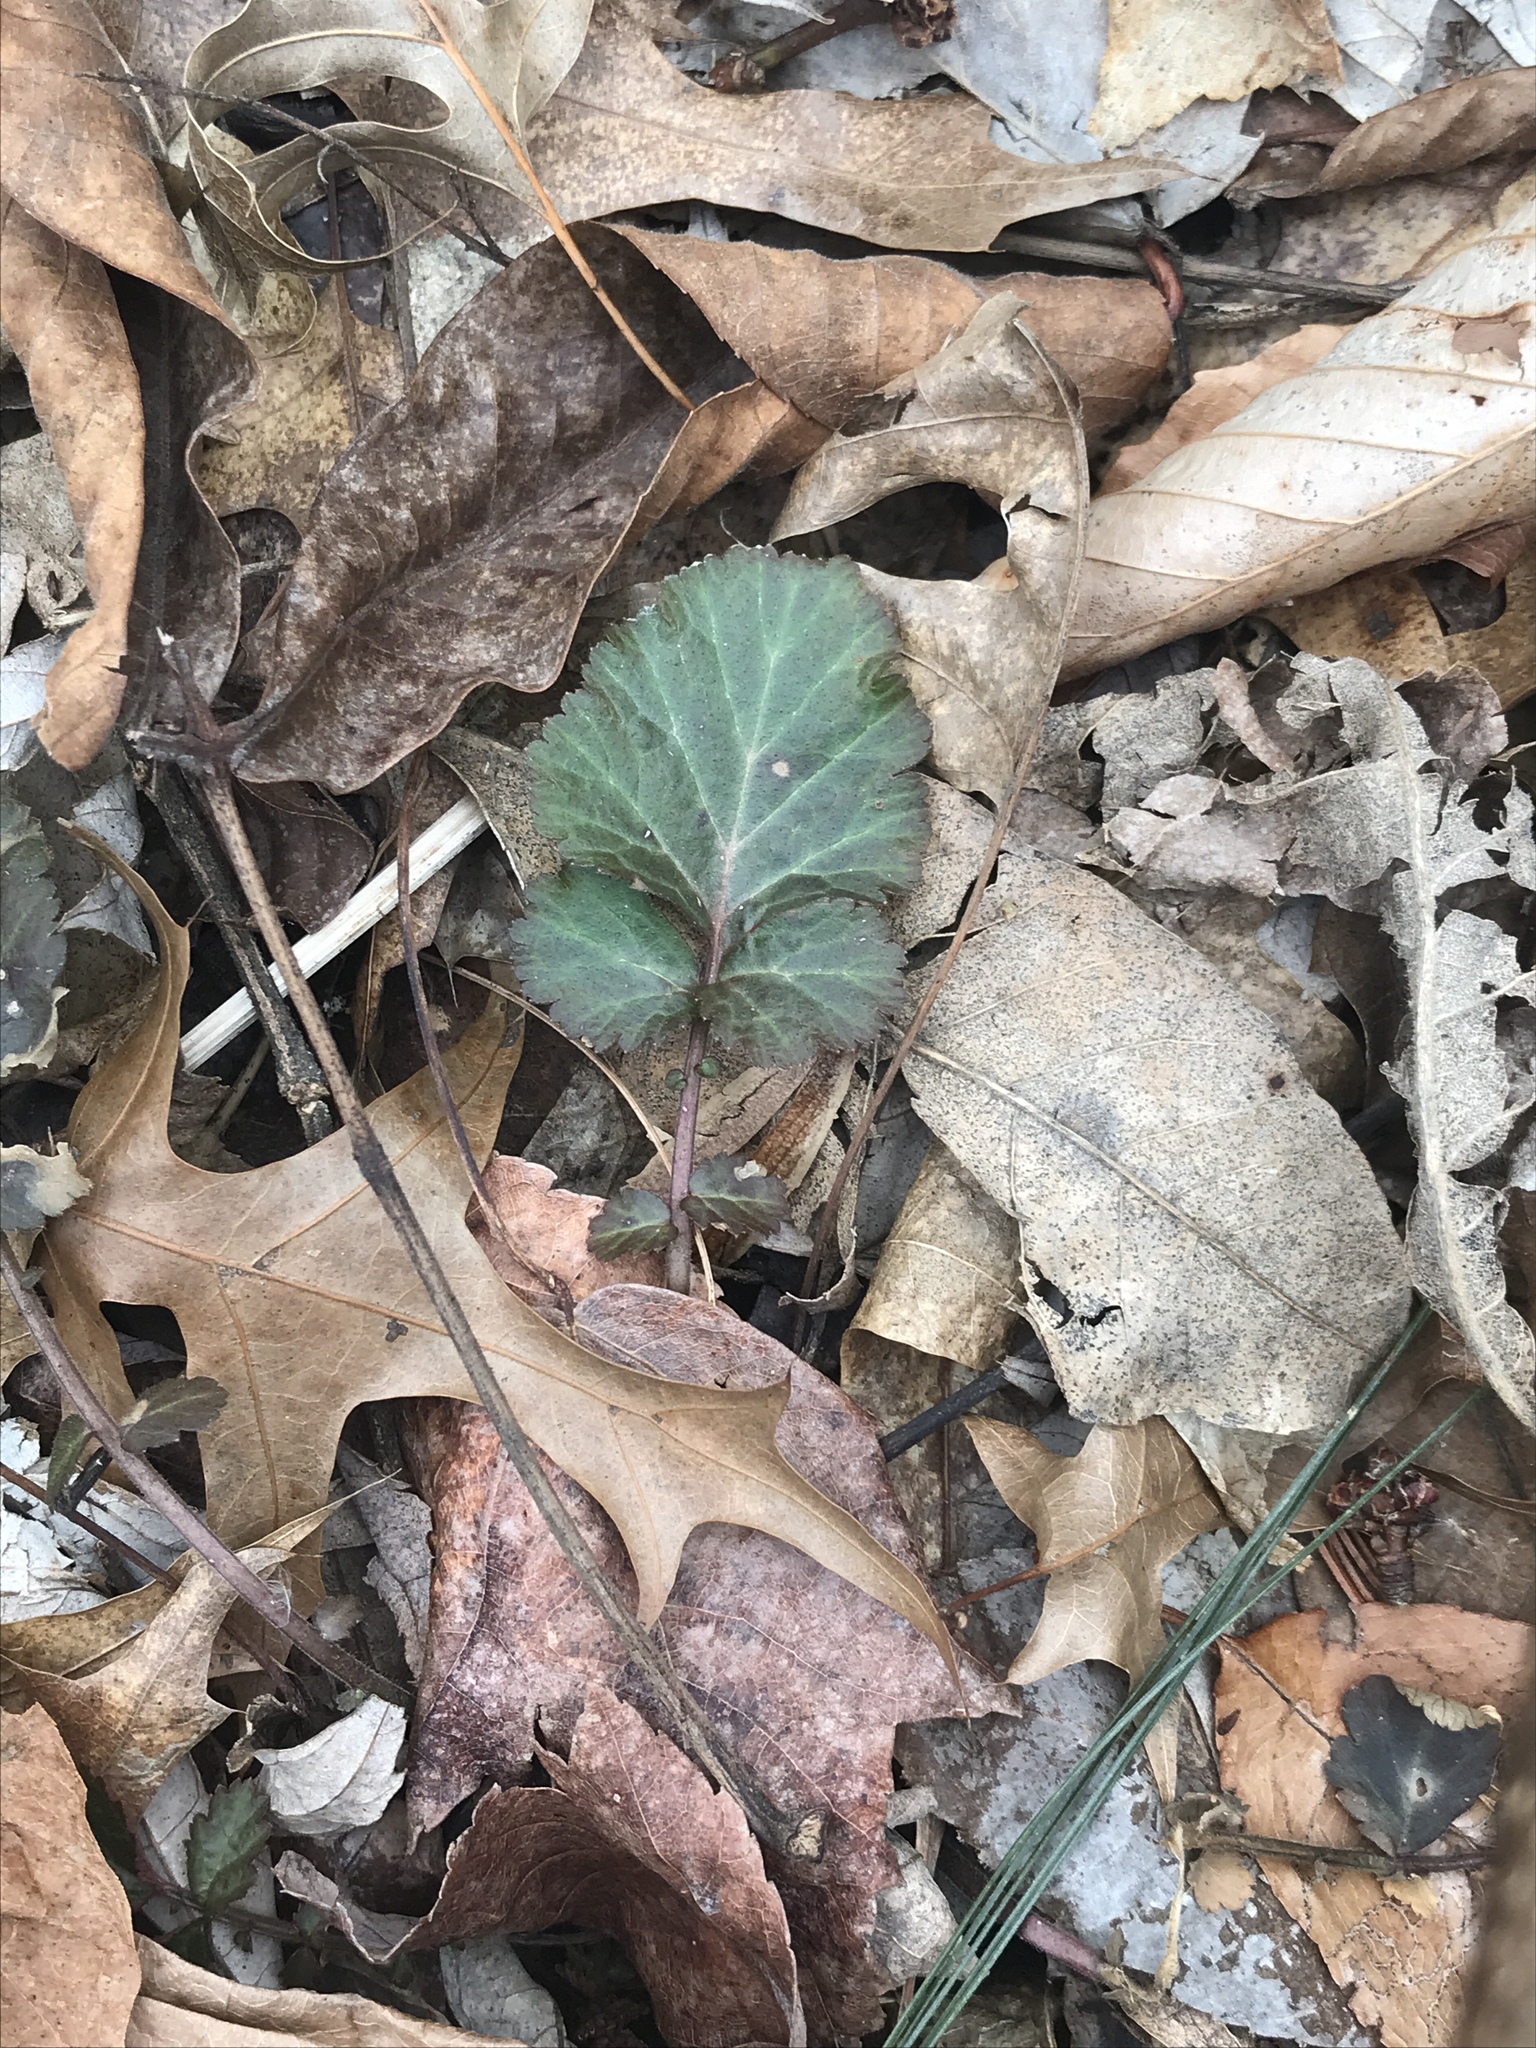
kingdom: Plantae
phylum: Tracheophyta
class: Magnoliopsida
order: Rosales
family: Rosaceae
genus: Geum
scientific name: Geum canadense
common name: White avens
